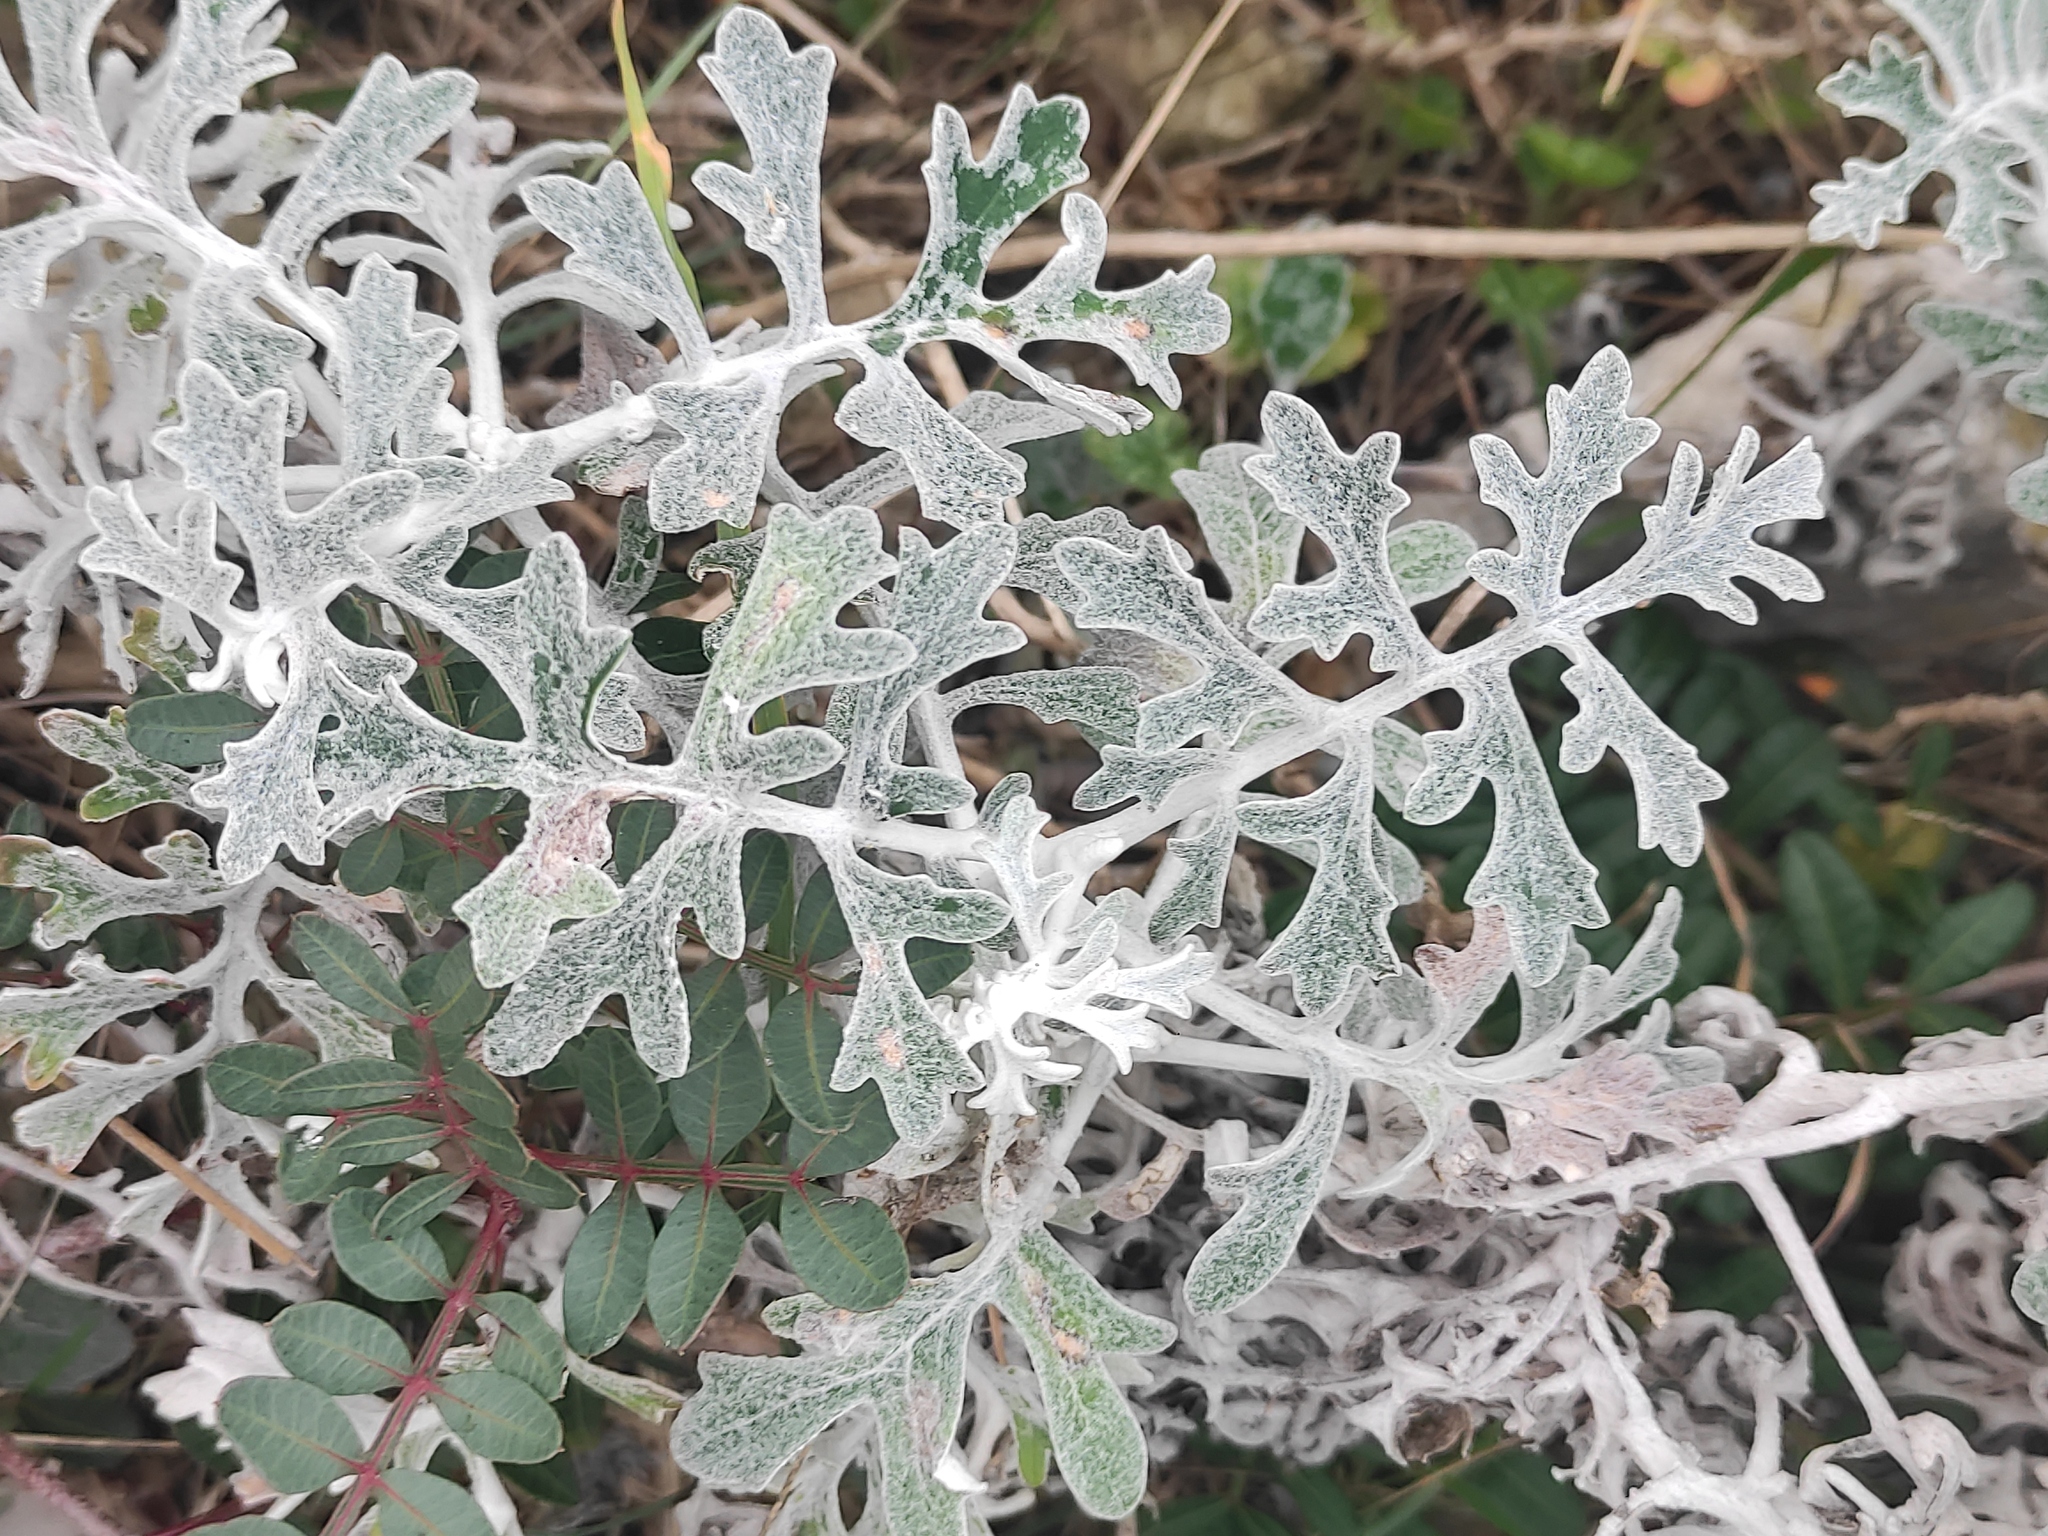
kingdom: Plantae
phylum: Tracheophyta
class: Magnoliopsida
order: Asterales
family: Asteraceae
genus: Jacobaea
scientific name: Jacobaea maritima
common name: Silver ragwort
